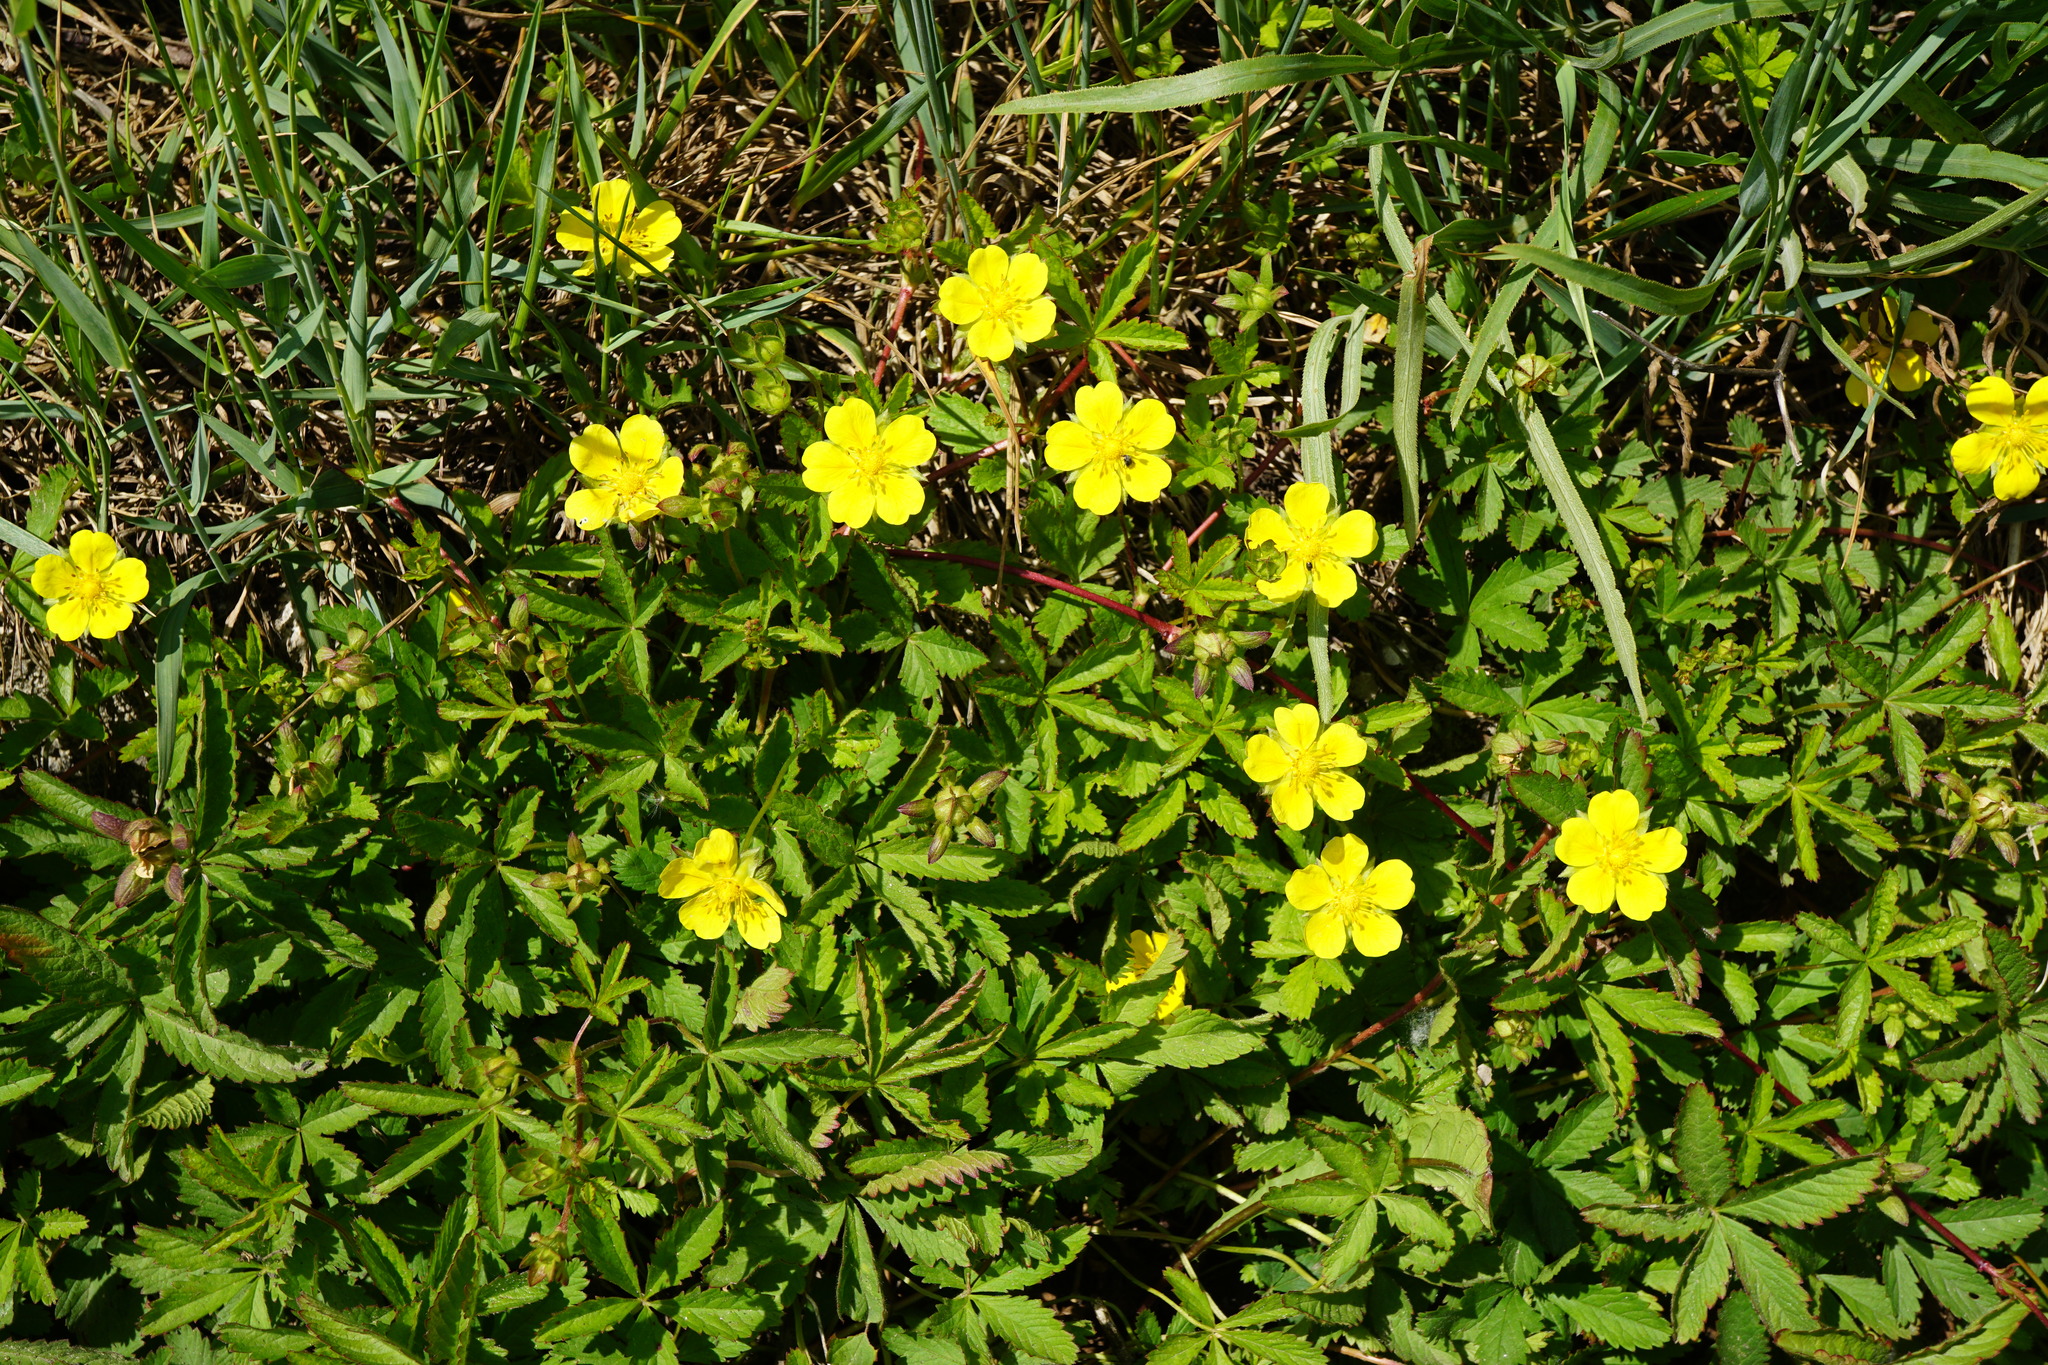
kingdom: Plantae
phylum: Tracheophyta
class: Magnoliopsida
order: Rosales
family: Rosaceae
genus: Potentilla
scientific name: Potentilla reptans
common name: Creeping cinquefoil
